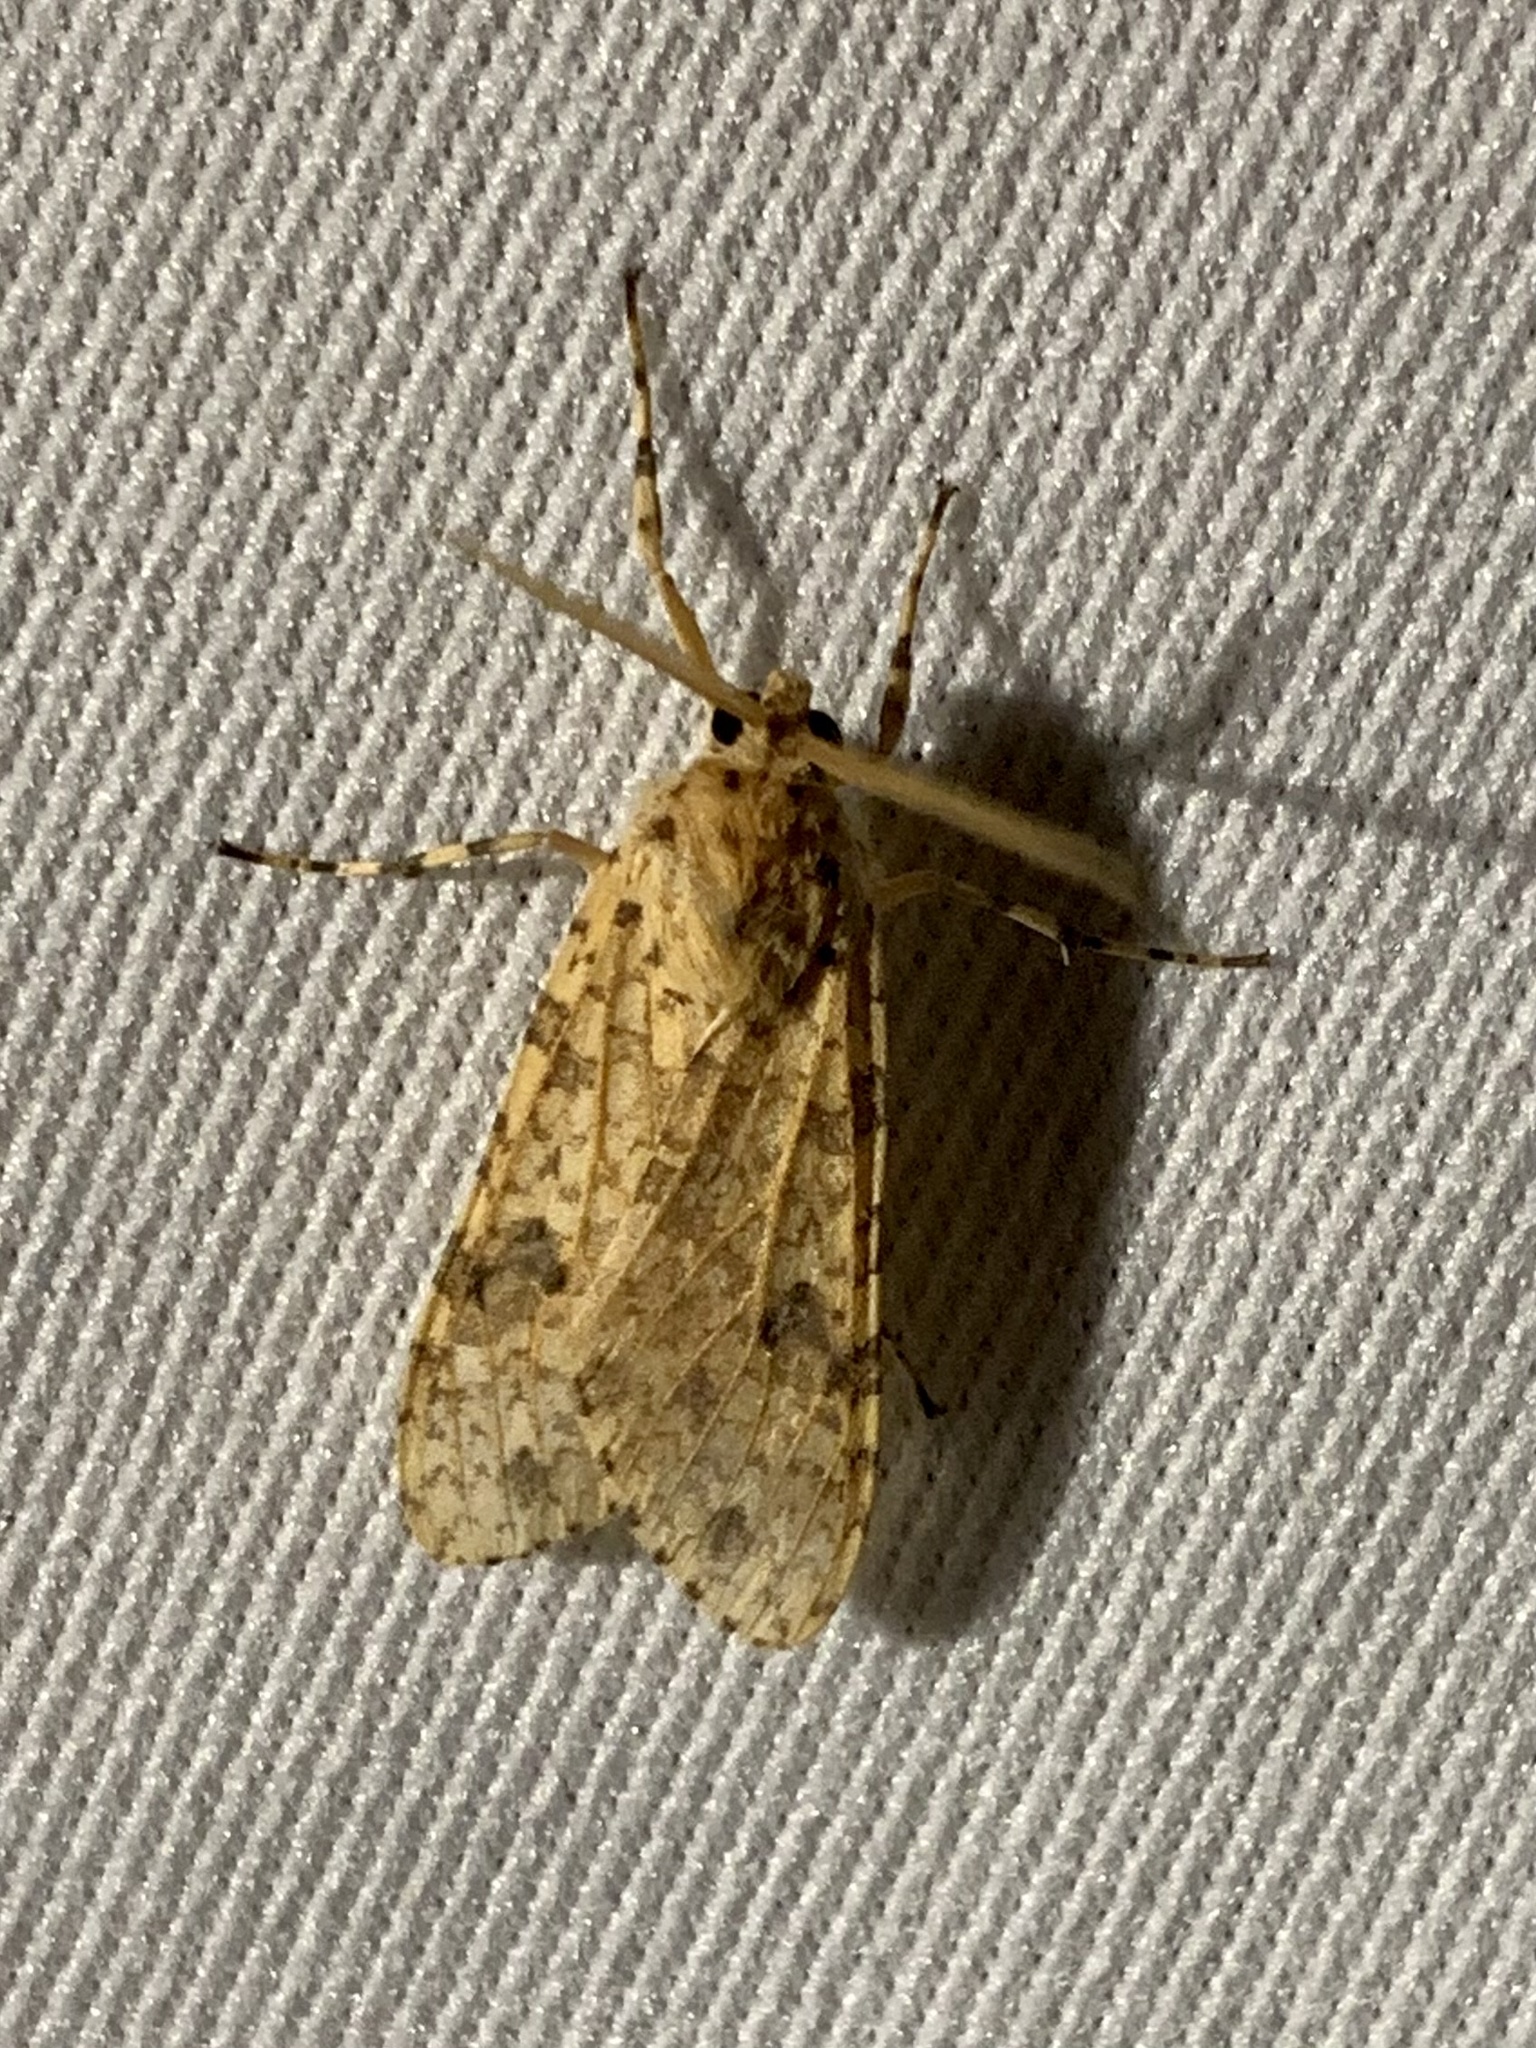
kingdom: Animalia
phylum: Arthropoda
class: Insecta
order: Lepidoptera
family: Erebidae
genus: Lophocampa
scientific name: Lophocampa modesta
